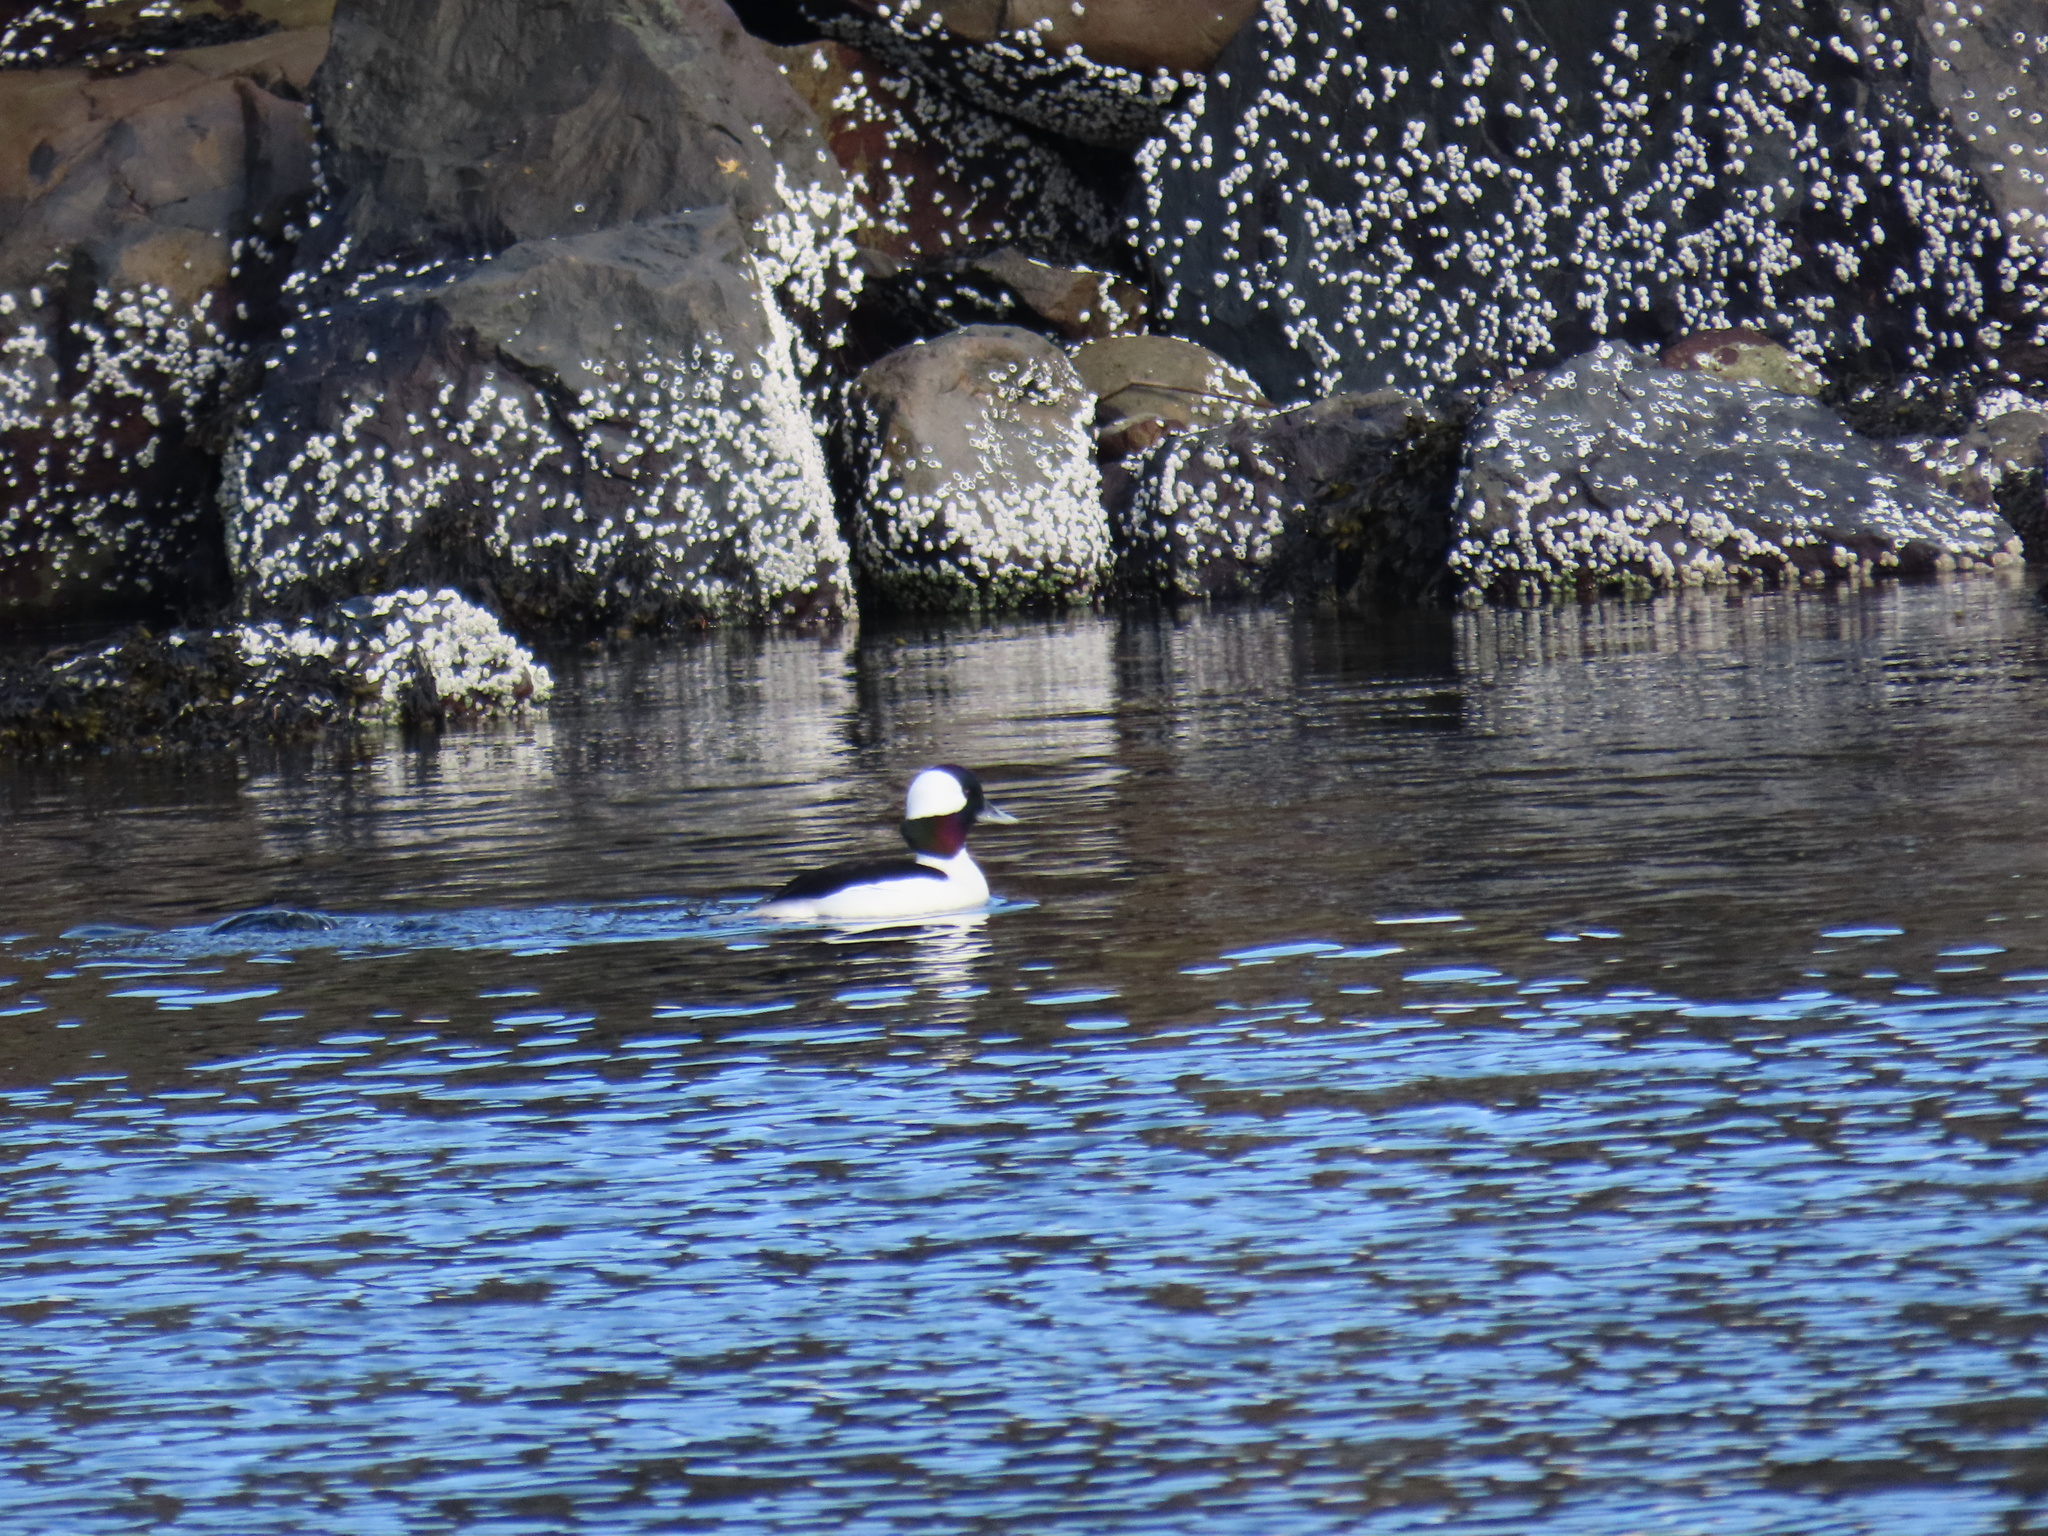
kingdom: Animalia
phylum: Chordata
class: Aves
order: Anseriformes
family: Anatidae
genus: Bucephala
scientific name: Bucephala albeola
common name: Bufflehead
